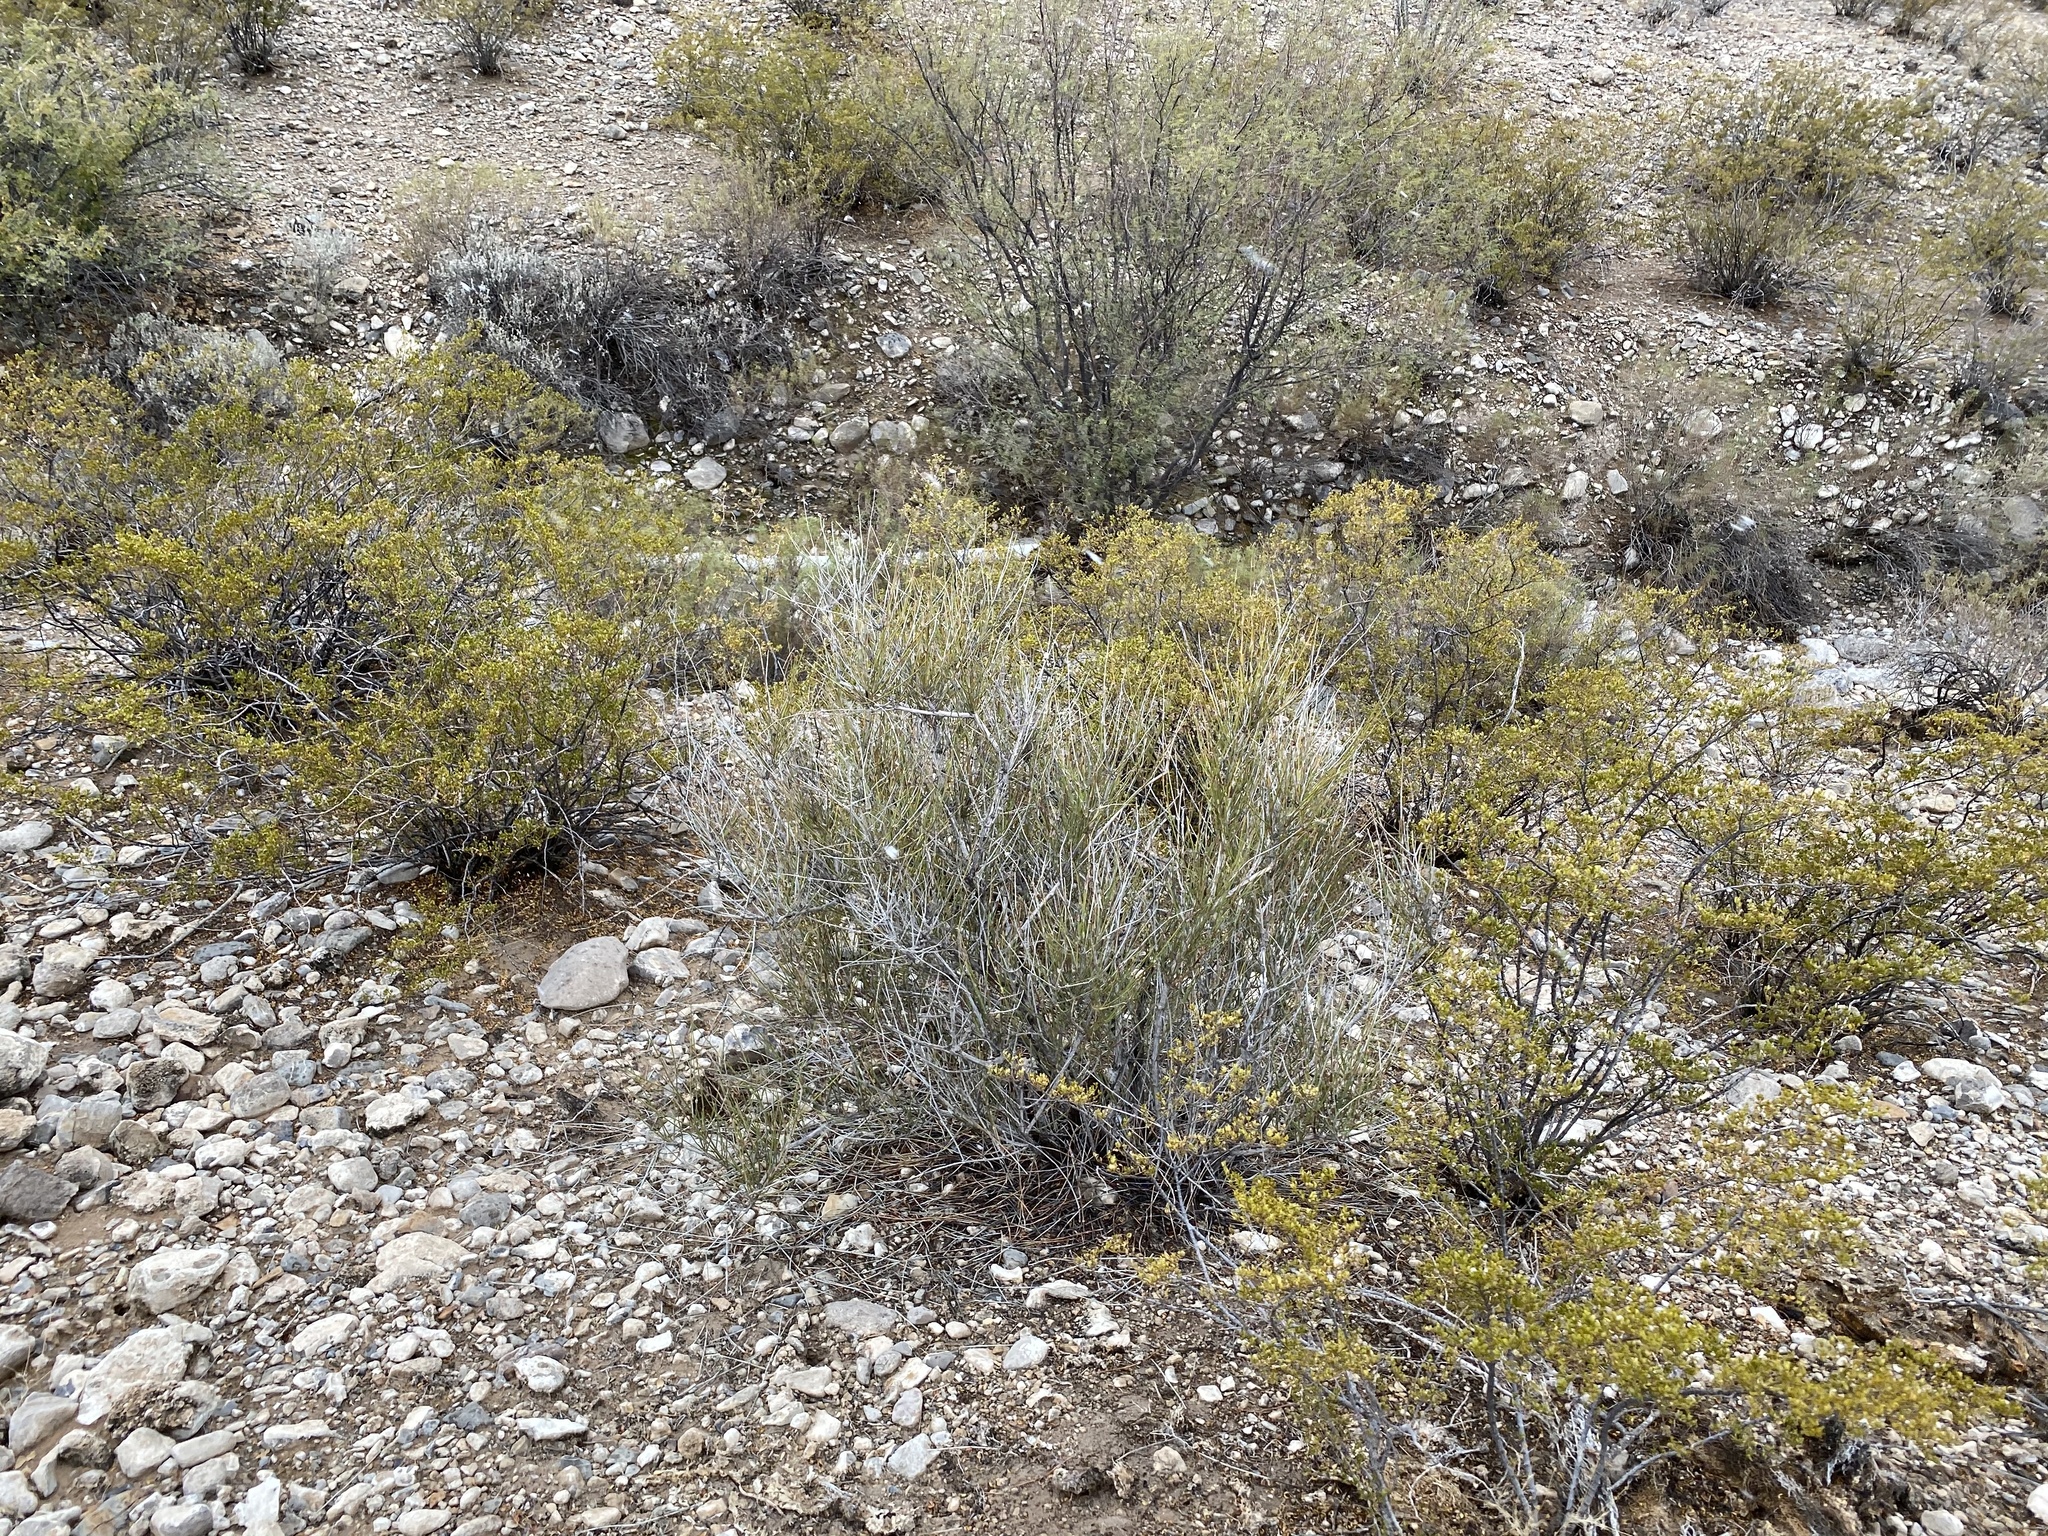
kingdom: Plantae
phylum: Tracheophyta
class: Gnetopsida
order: Ephedrales
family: Ephedraceae
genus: Ephedra
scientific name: Ephedra trifurca
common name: Mexican-tea
